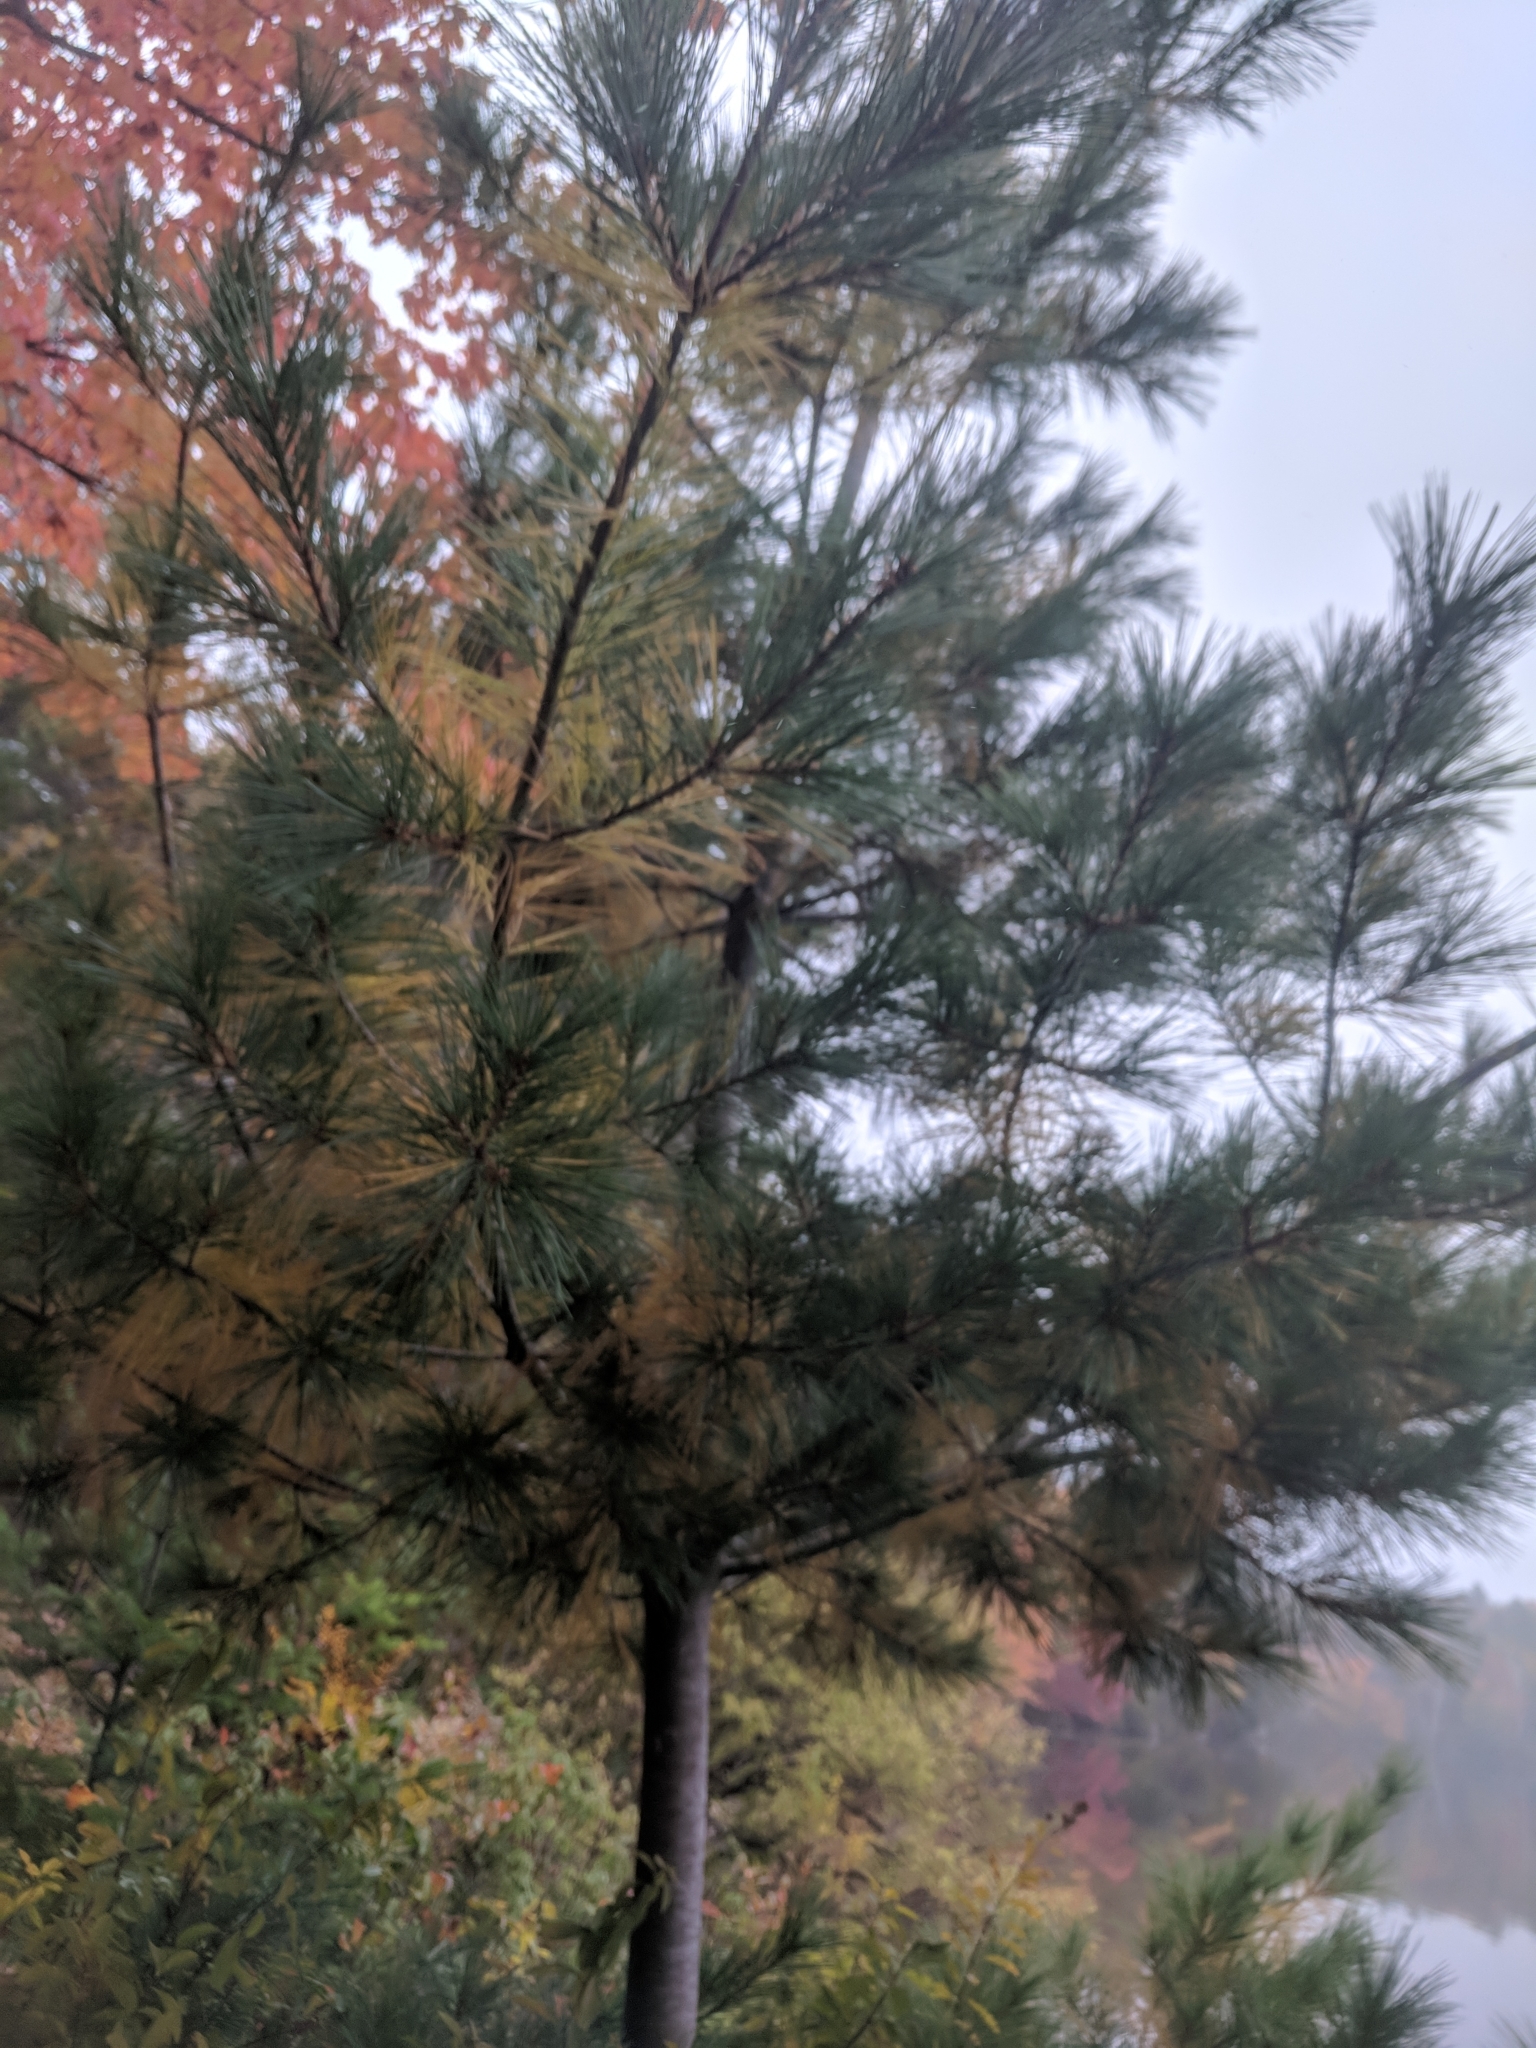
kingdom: Plantae
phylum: Tracheophyta
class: Pinopsida
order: Pinales
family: Pinaceae
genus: Pinus
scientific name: Pinus strobus
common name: Weymouth pine
